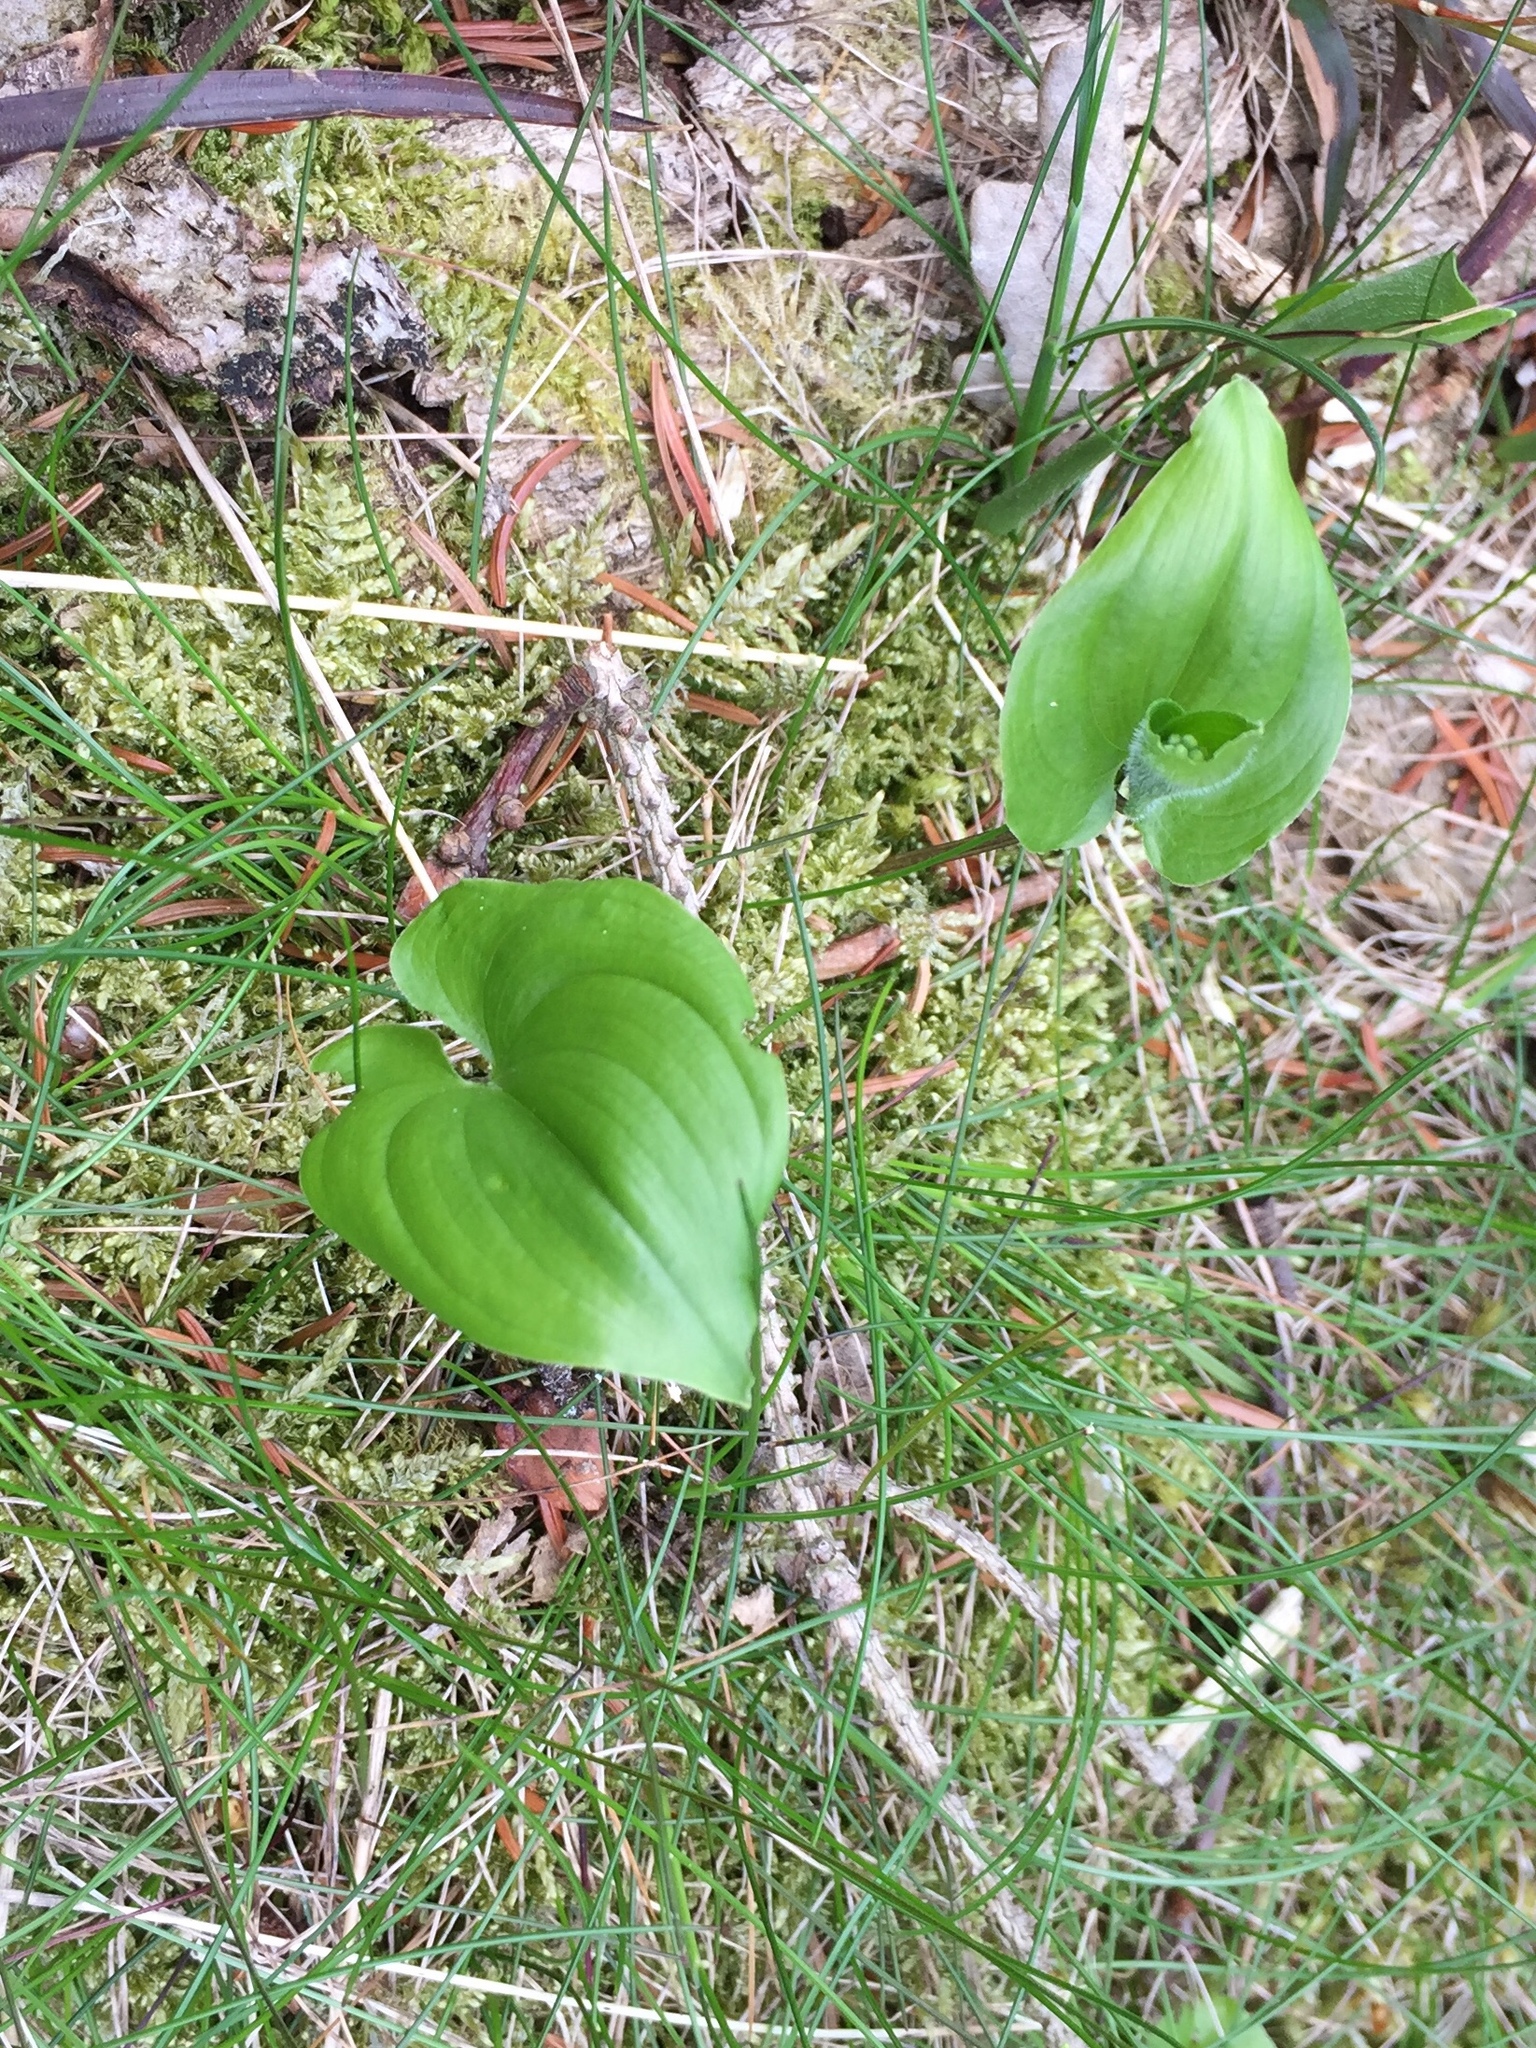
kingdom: Plantae
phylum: Tracheophyta
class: Liliopsida
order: Asparagales
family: Asparagaceae
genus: Maianthemum
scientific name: Maianthemum bifolium
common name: May lily
